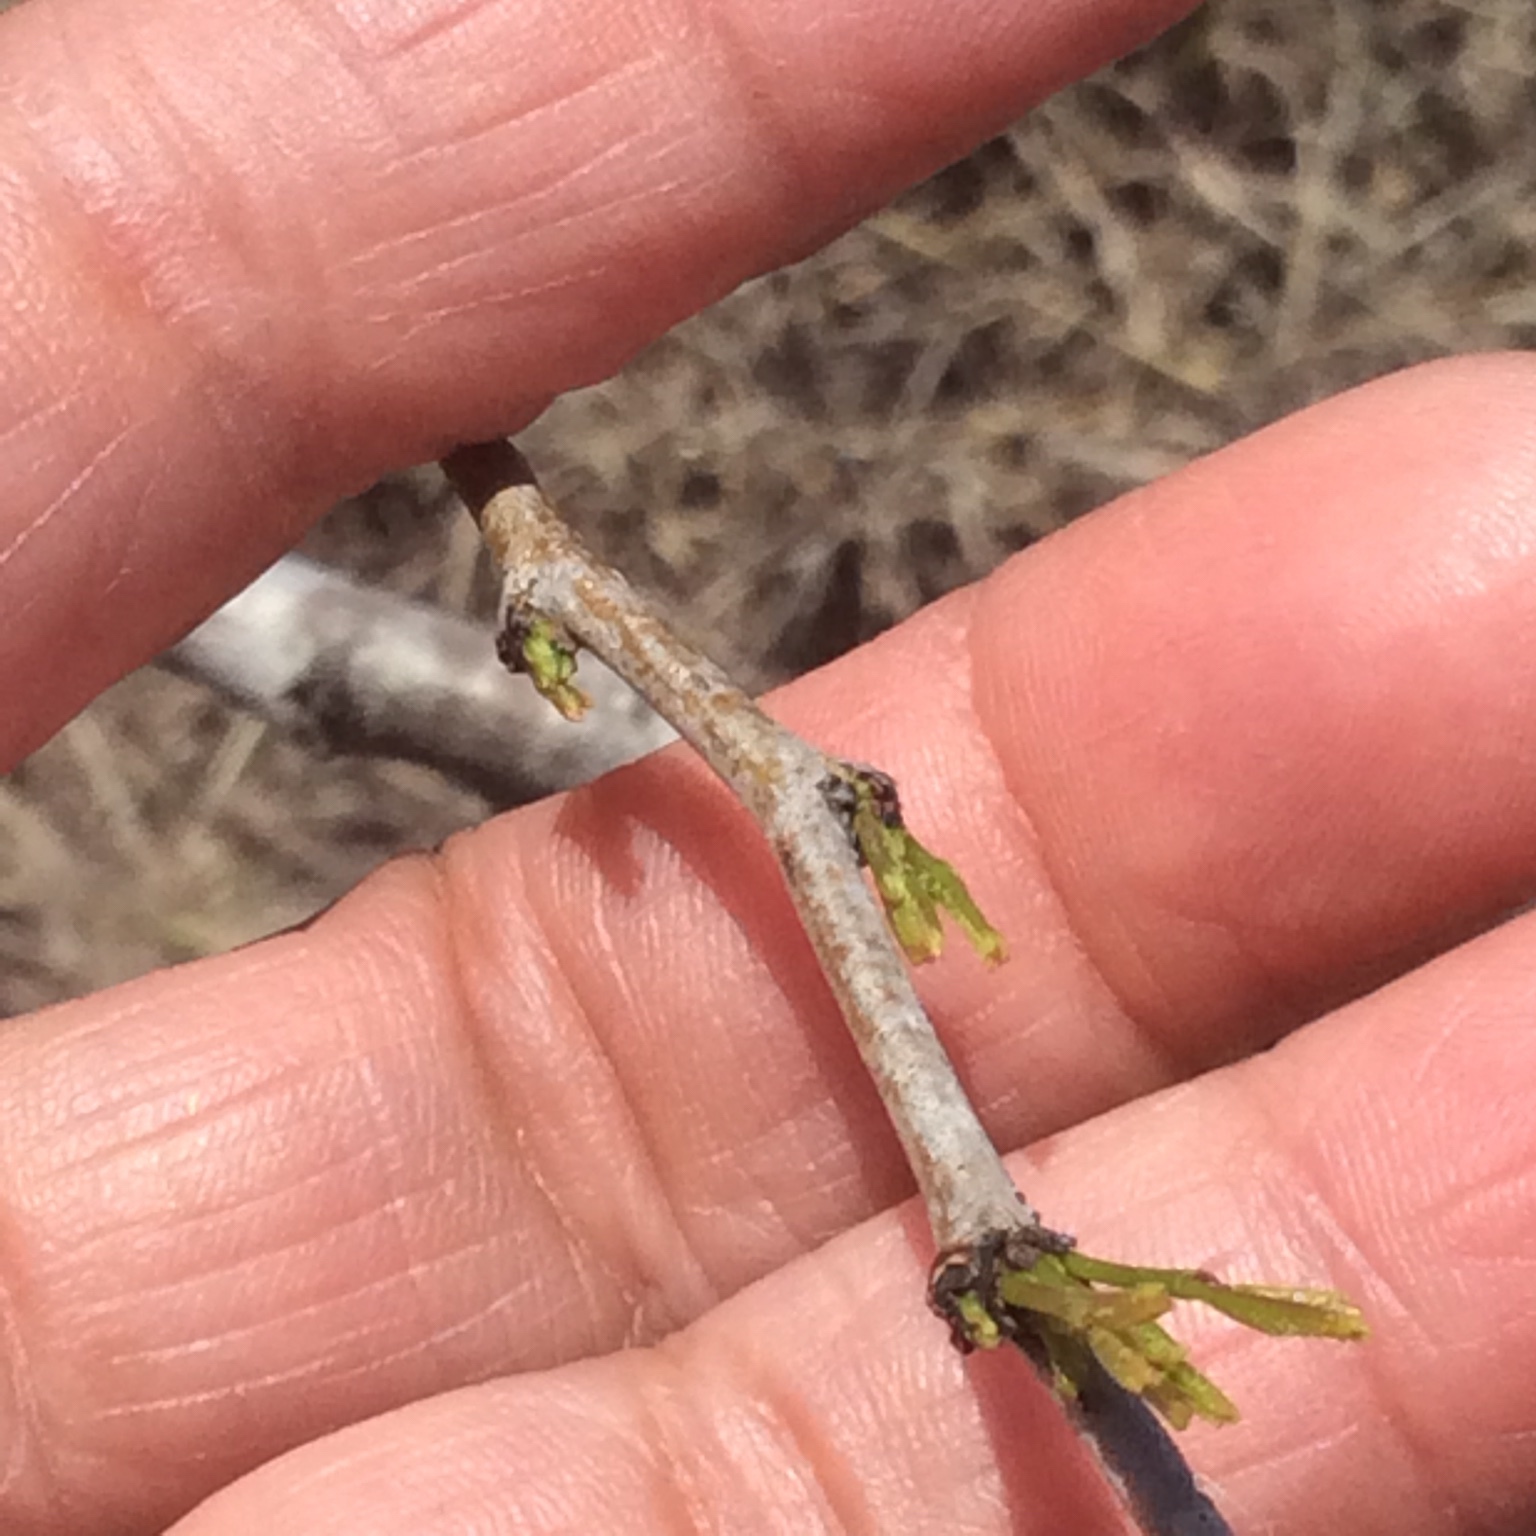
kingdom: Plantae
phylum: Tracheophyta
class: Magnoliopsida
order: Fabales
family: Fabaceae
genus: Prosopis
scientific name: Prosopis glandulosa
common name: Honey mesquite
